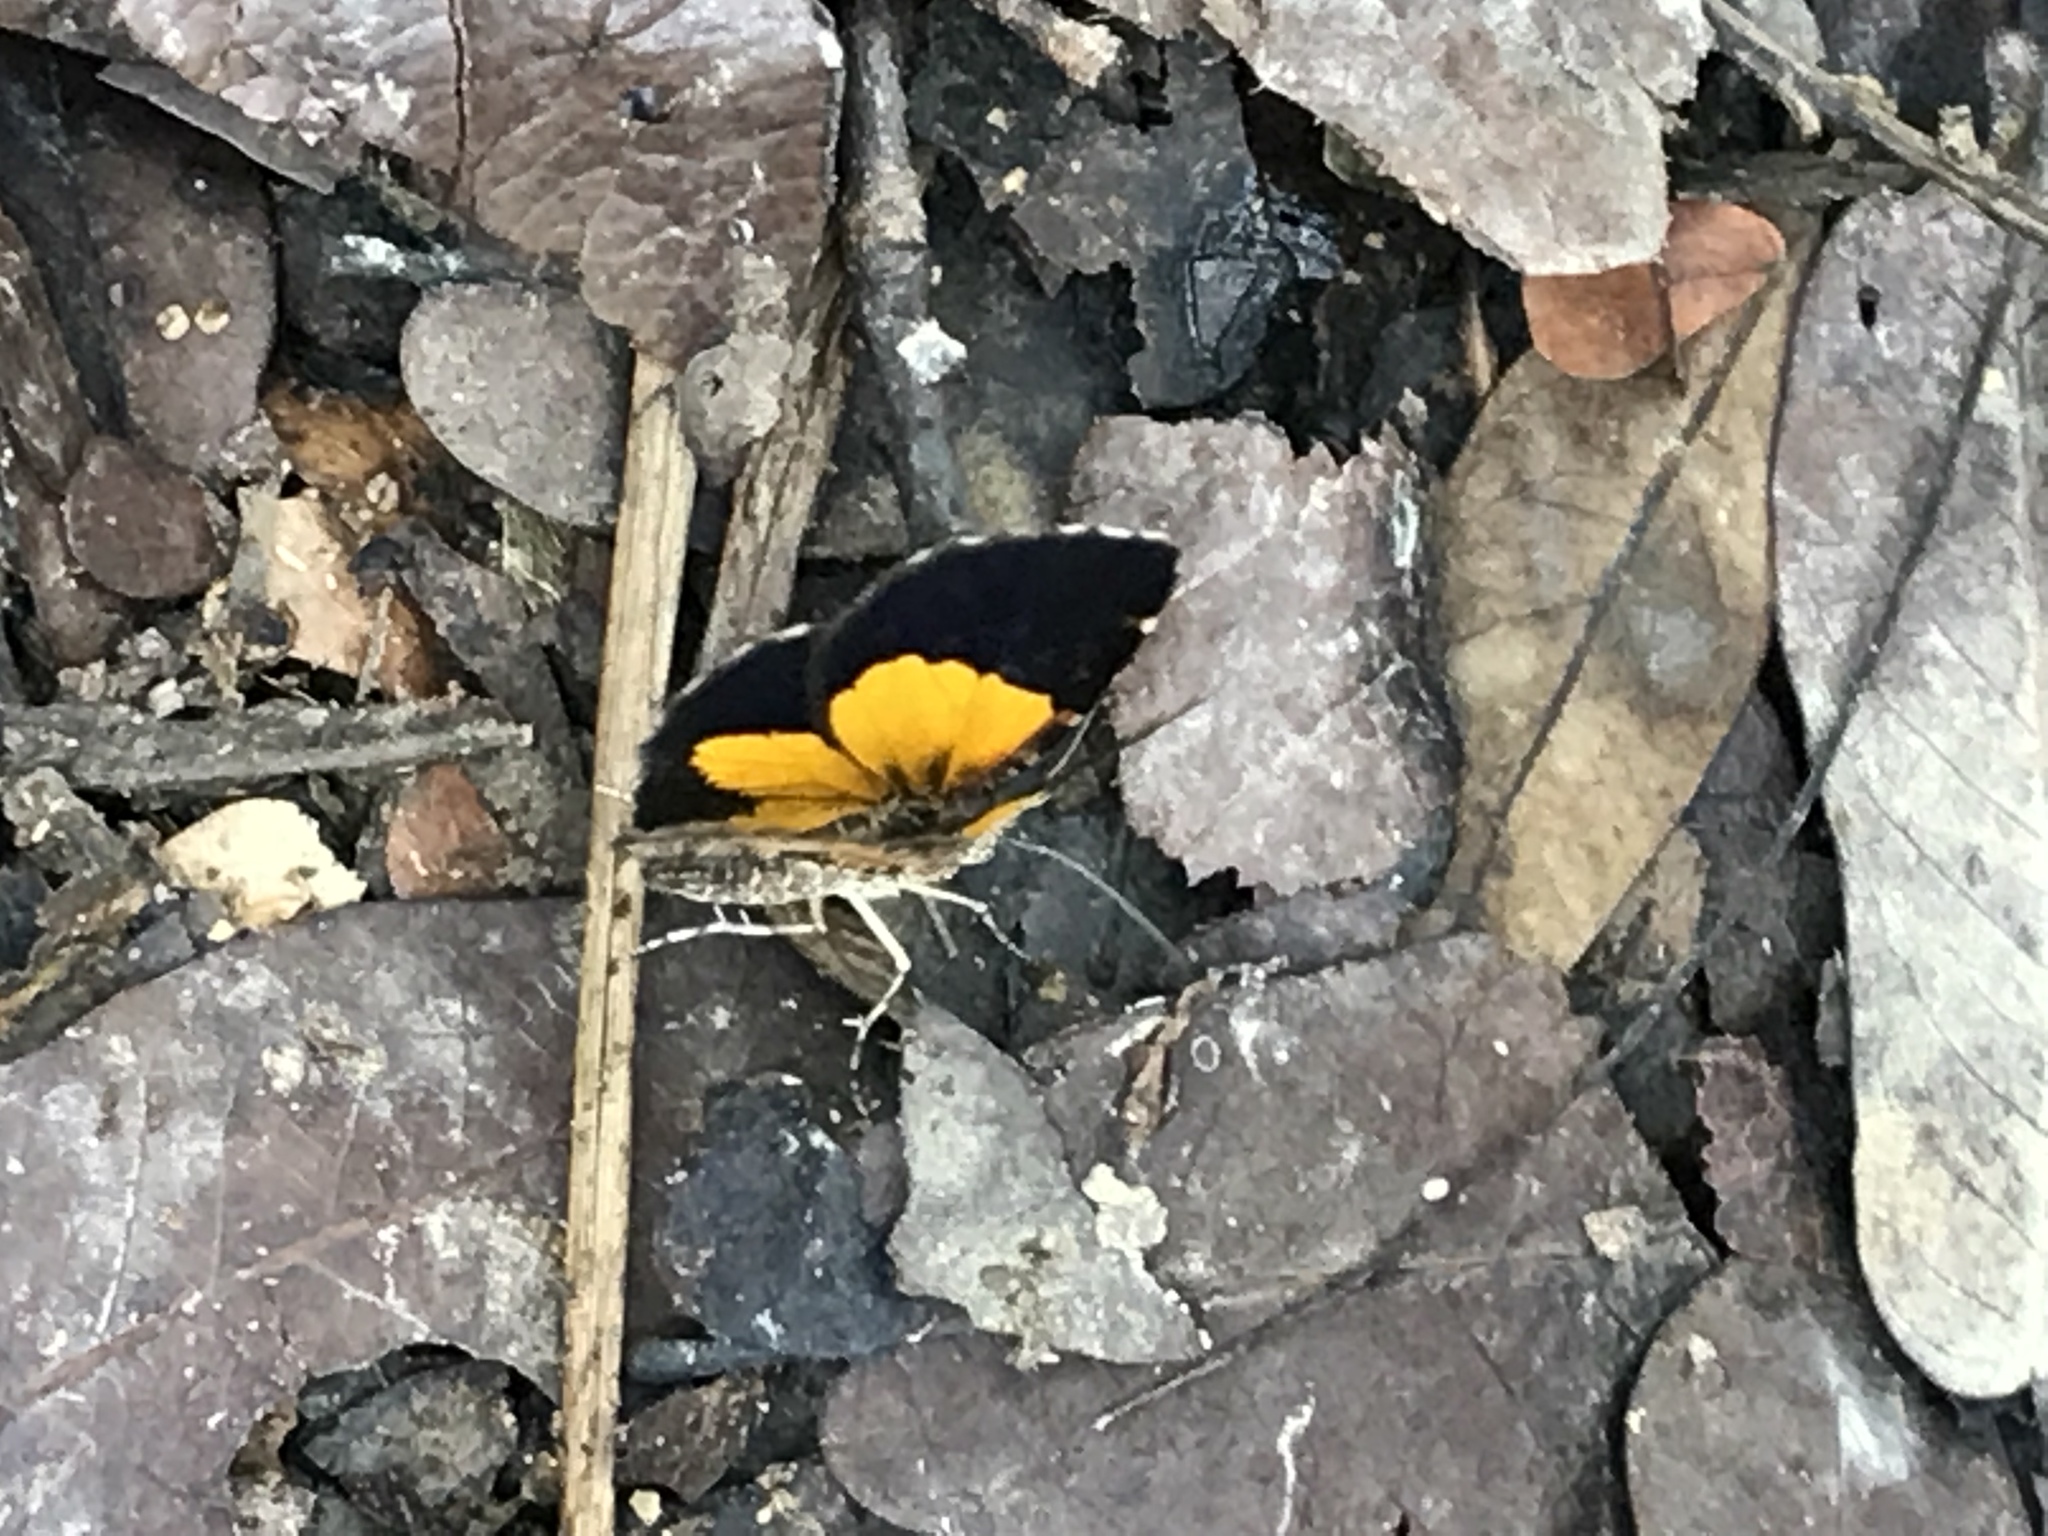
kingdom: Animalia
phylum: Arthropoda
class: Insecta
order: Lepidoptera
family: Geometridae
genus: Heterusia
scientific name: Heterusia atalantata
